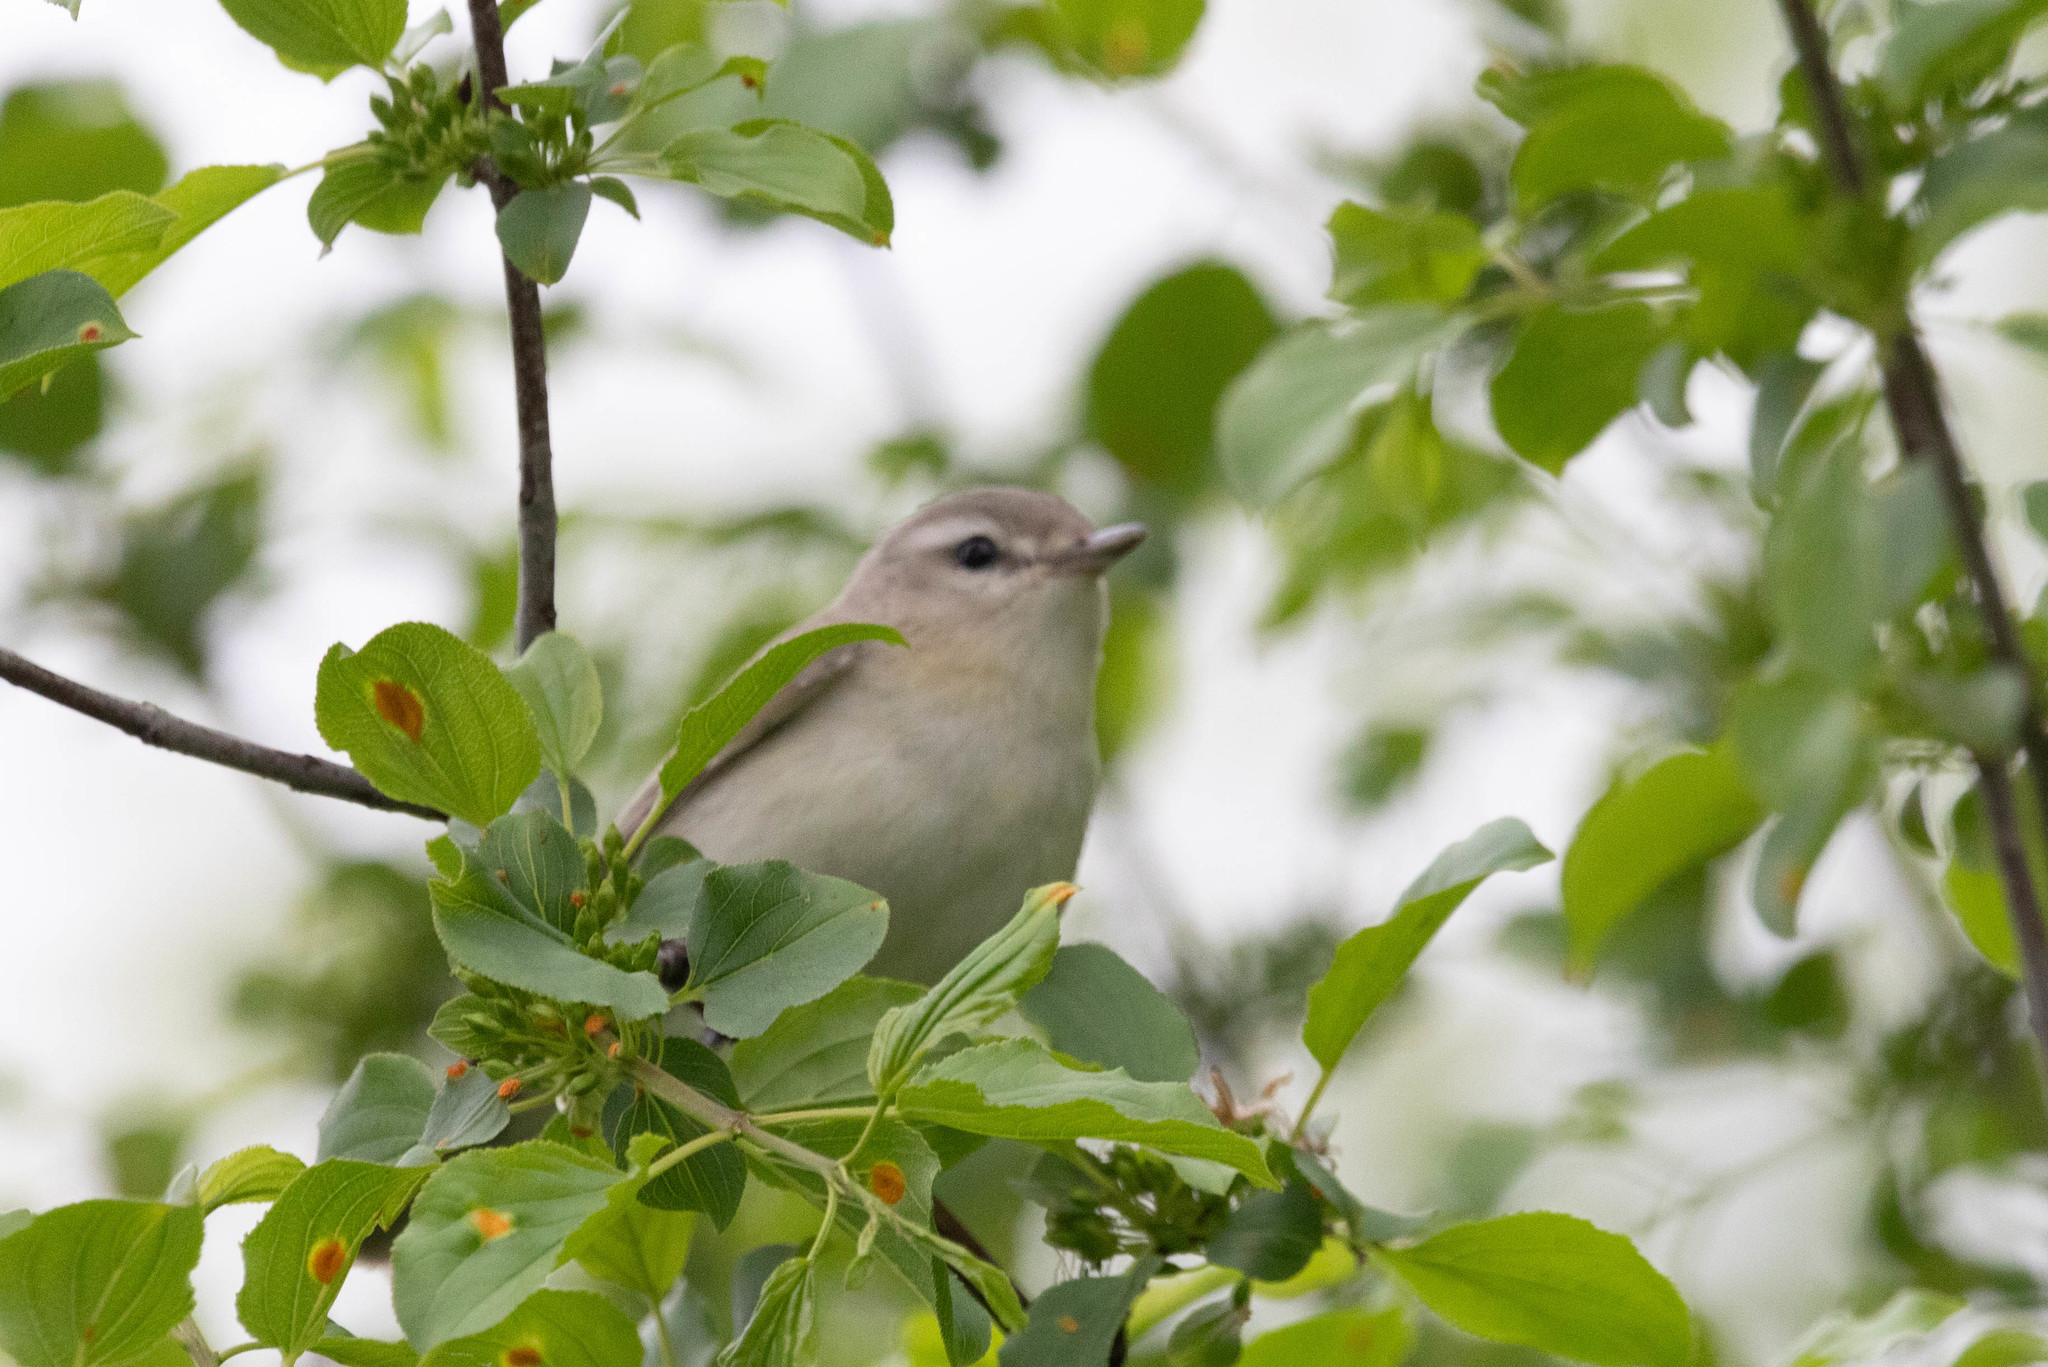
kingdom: Animalia
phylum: Chordata
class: Aves
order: Passeriformes
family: Vireonidae
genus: Vireo
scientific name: Vireo gilvus
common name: Warbling vireo
